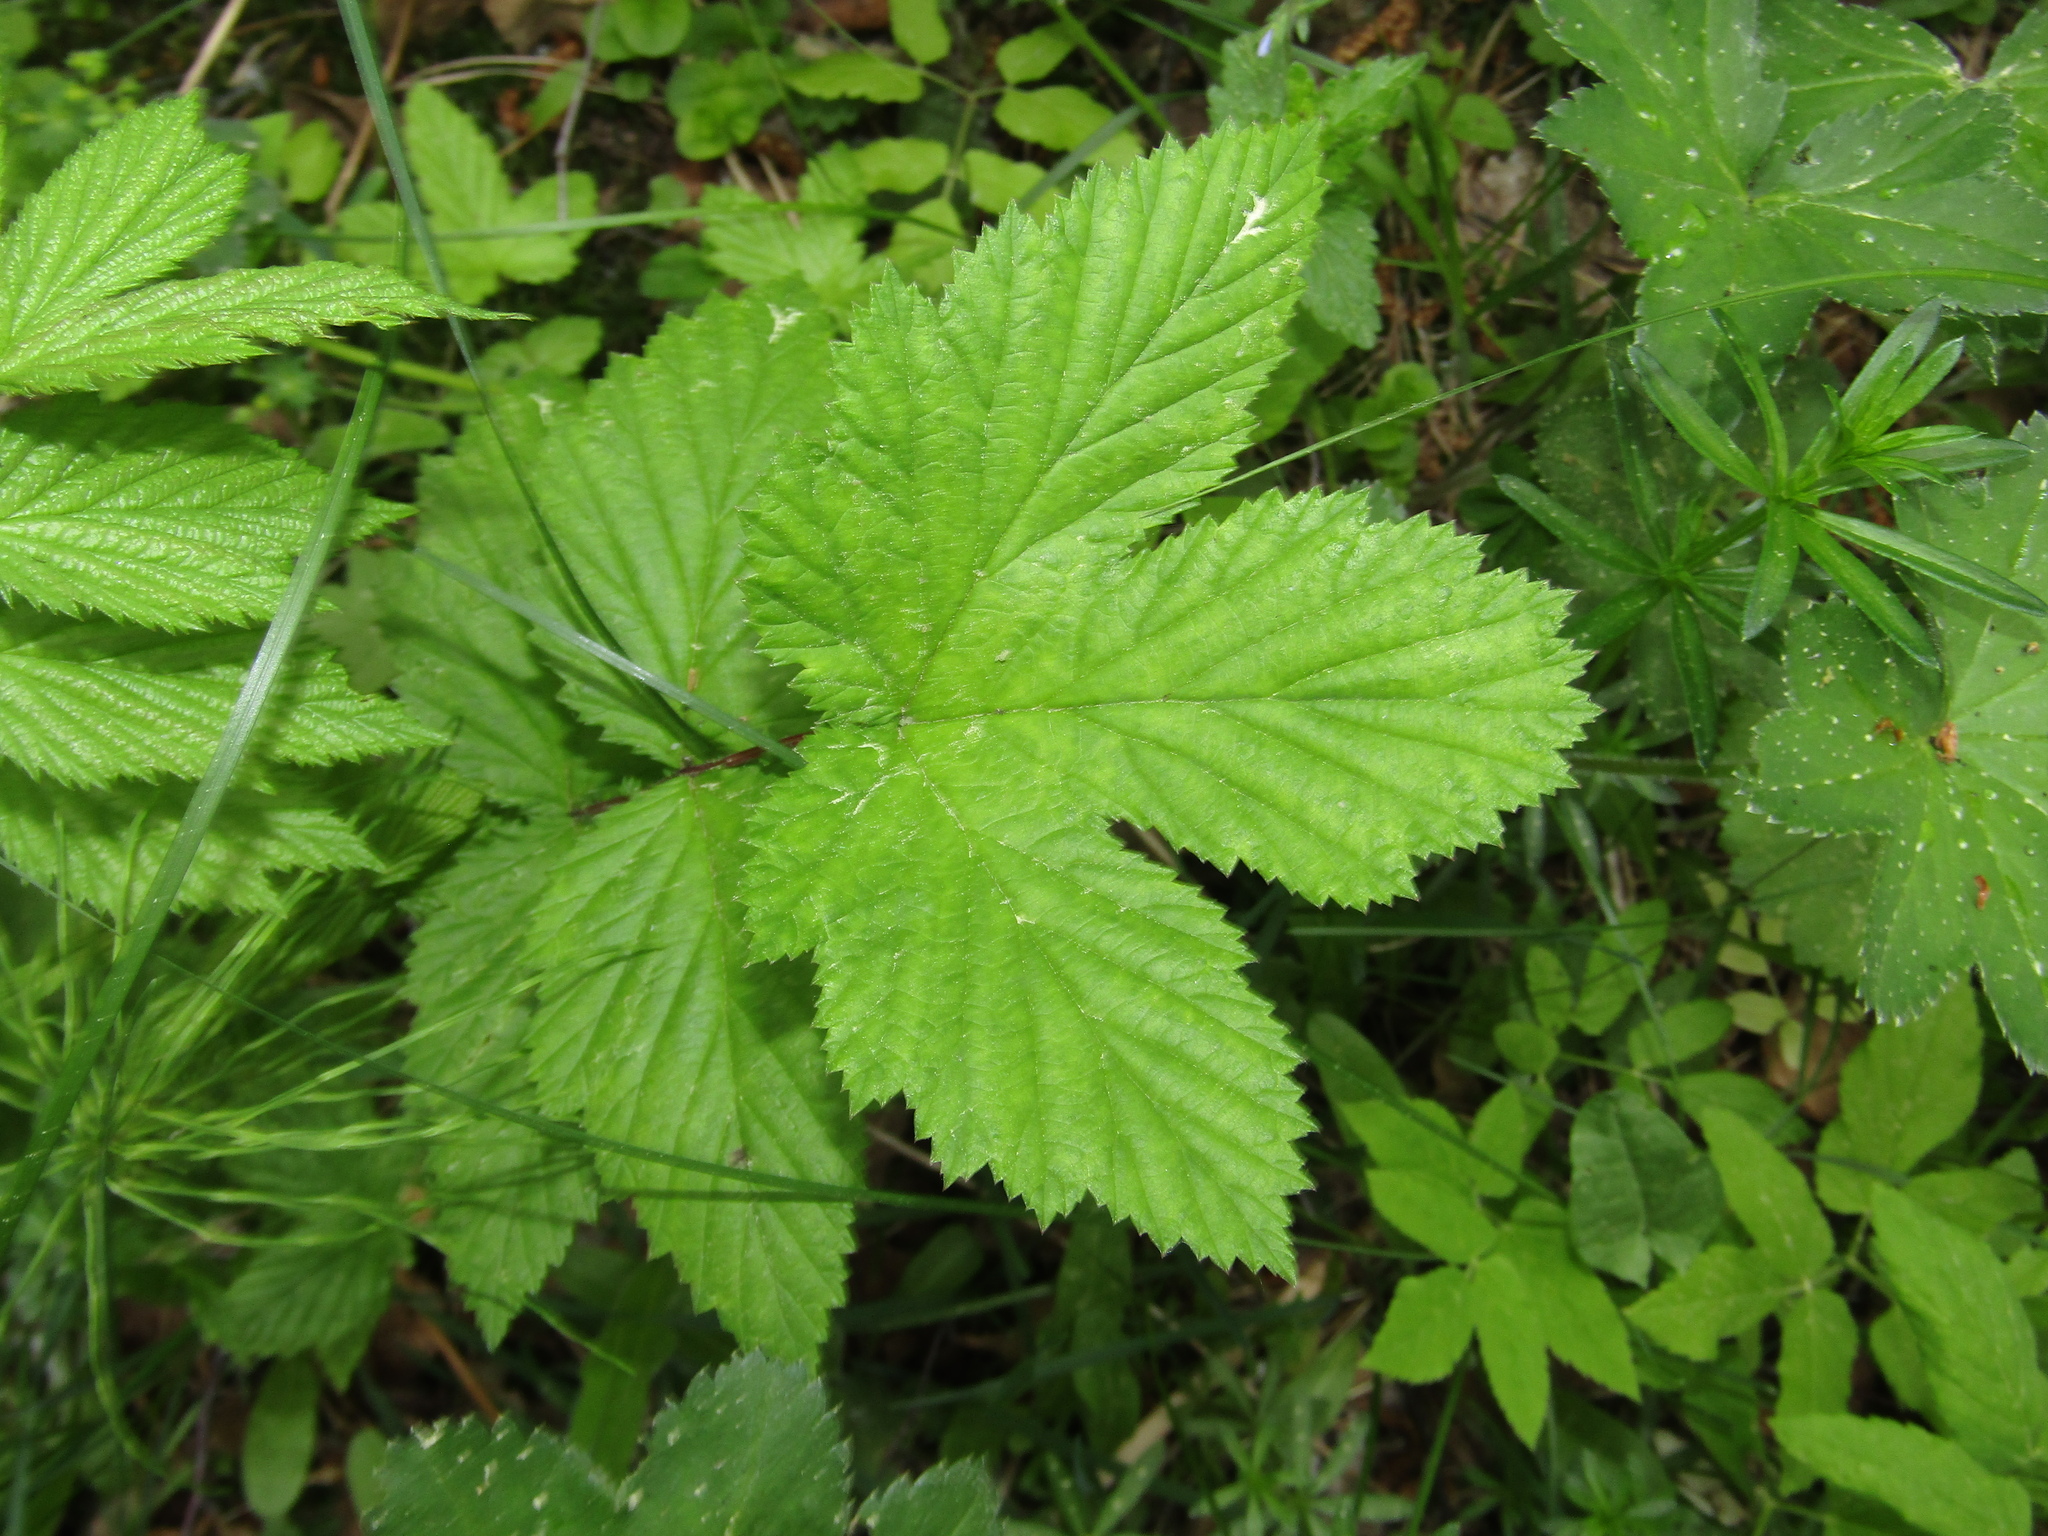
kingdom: Plantae
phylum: Tracheophyta
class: Magnoliopsida
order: Rosales
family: Rosaceae
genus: Filipendula
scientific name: Filipendula ulmaria
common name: Meadowsweet
